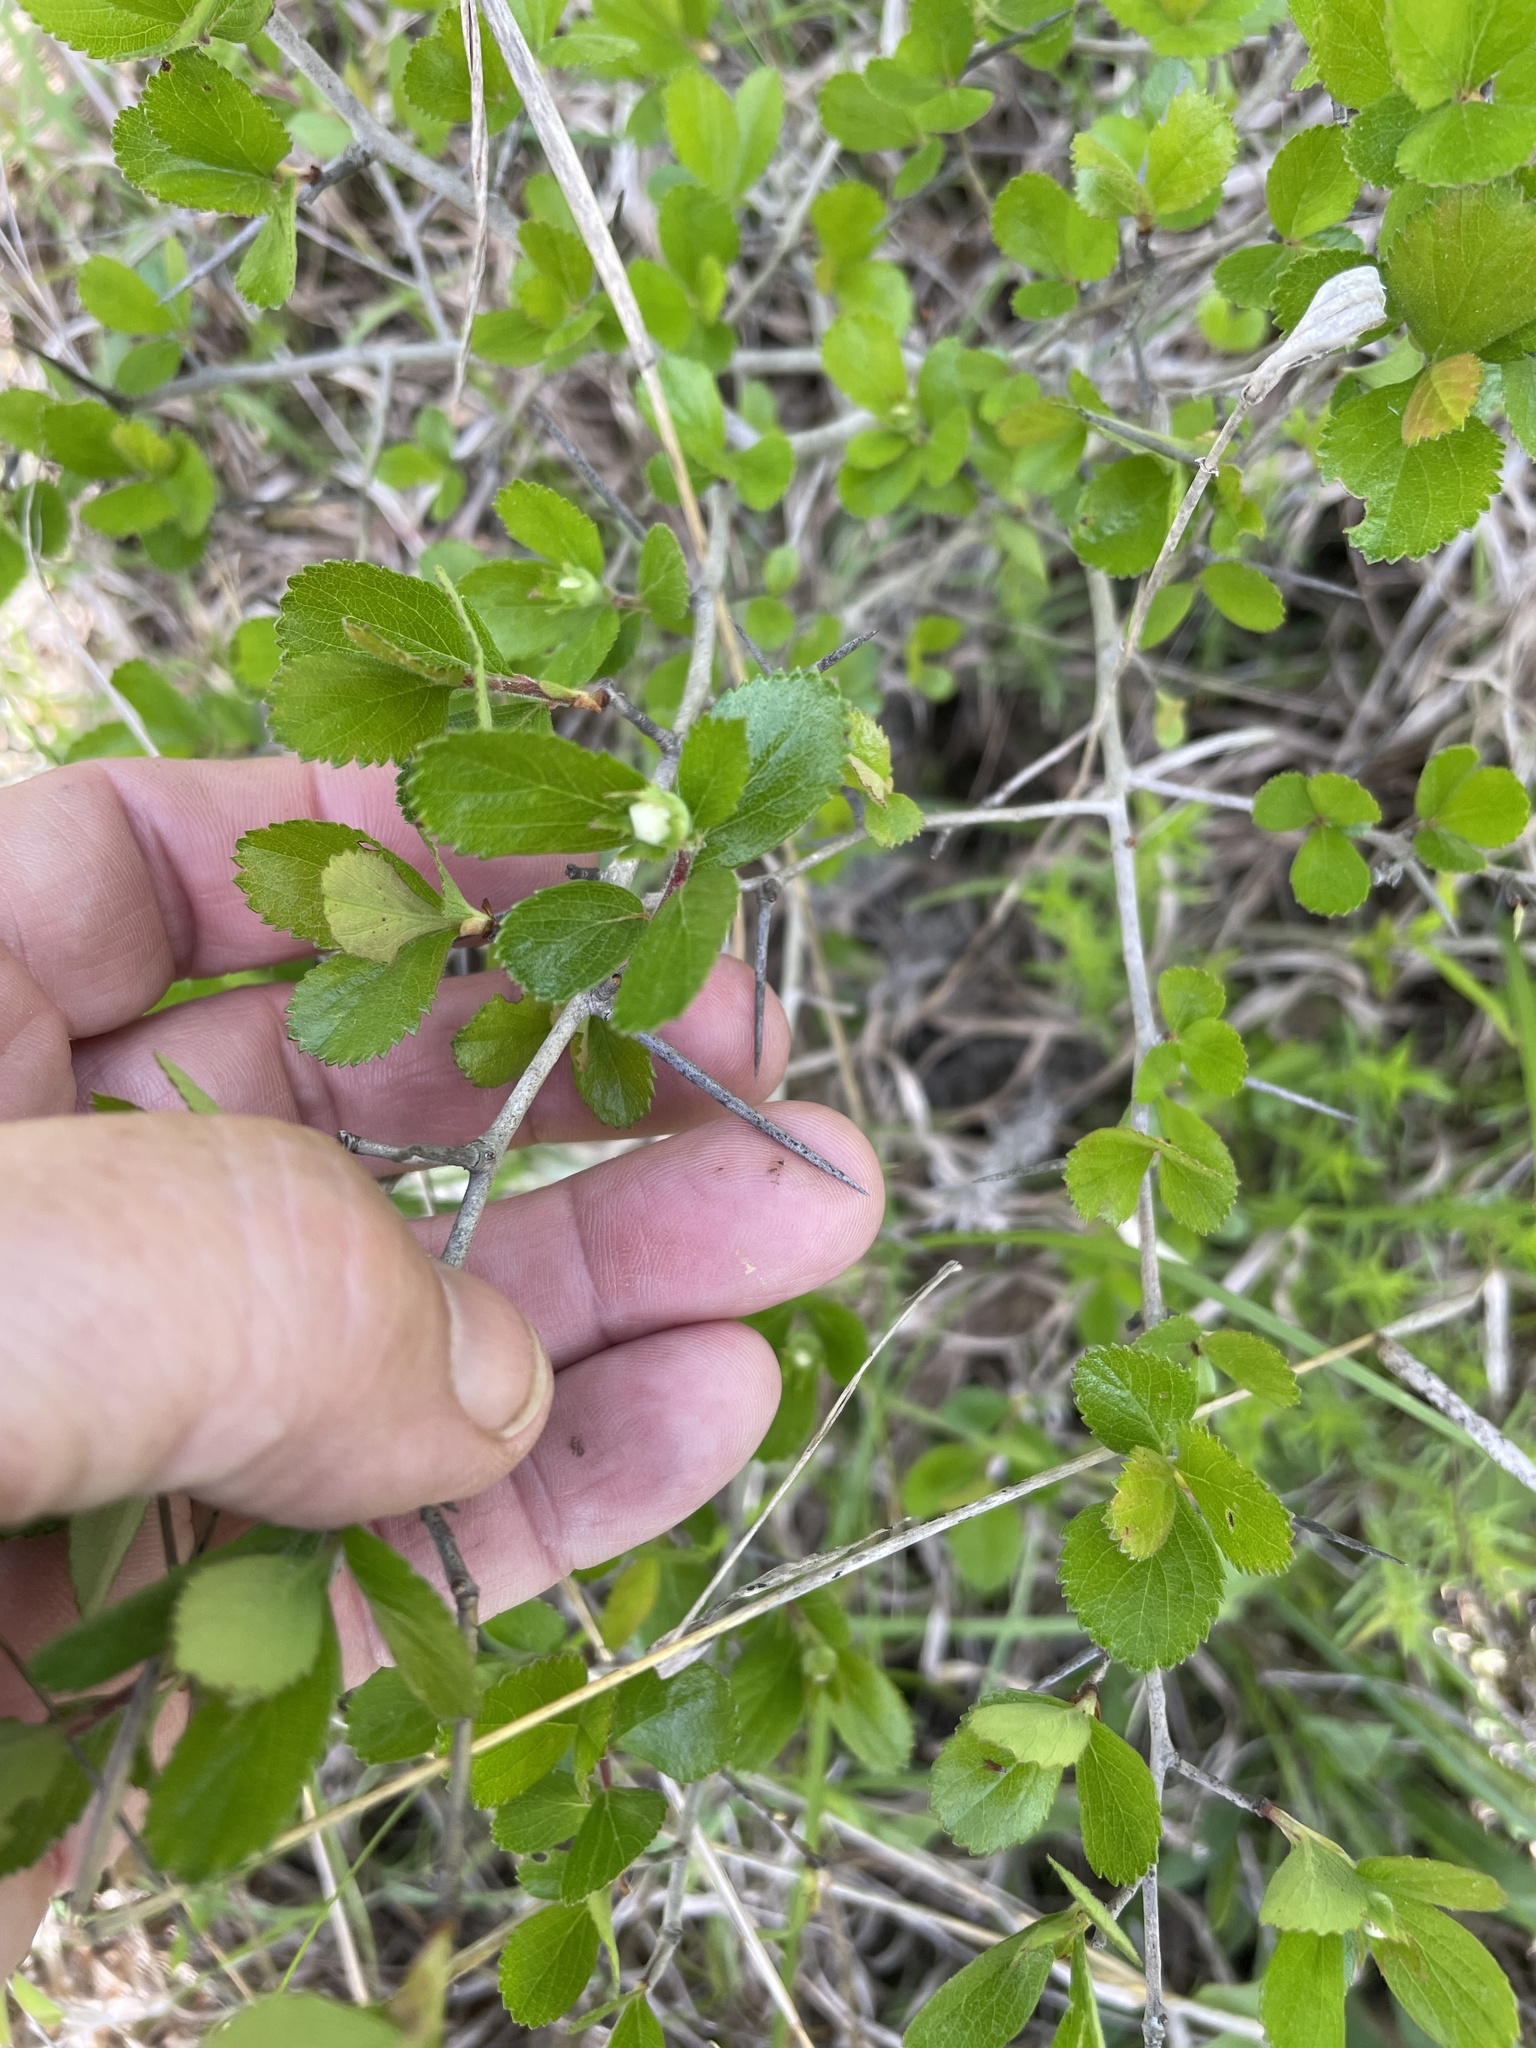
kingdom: Plantae
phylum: Tracheophyta
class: Magnoliopsida
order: Rosales
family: Rosaceae
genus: Crataegus
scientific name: Crataegus uniflora
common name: One-flower hawthorn
